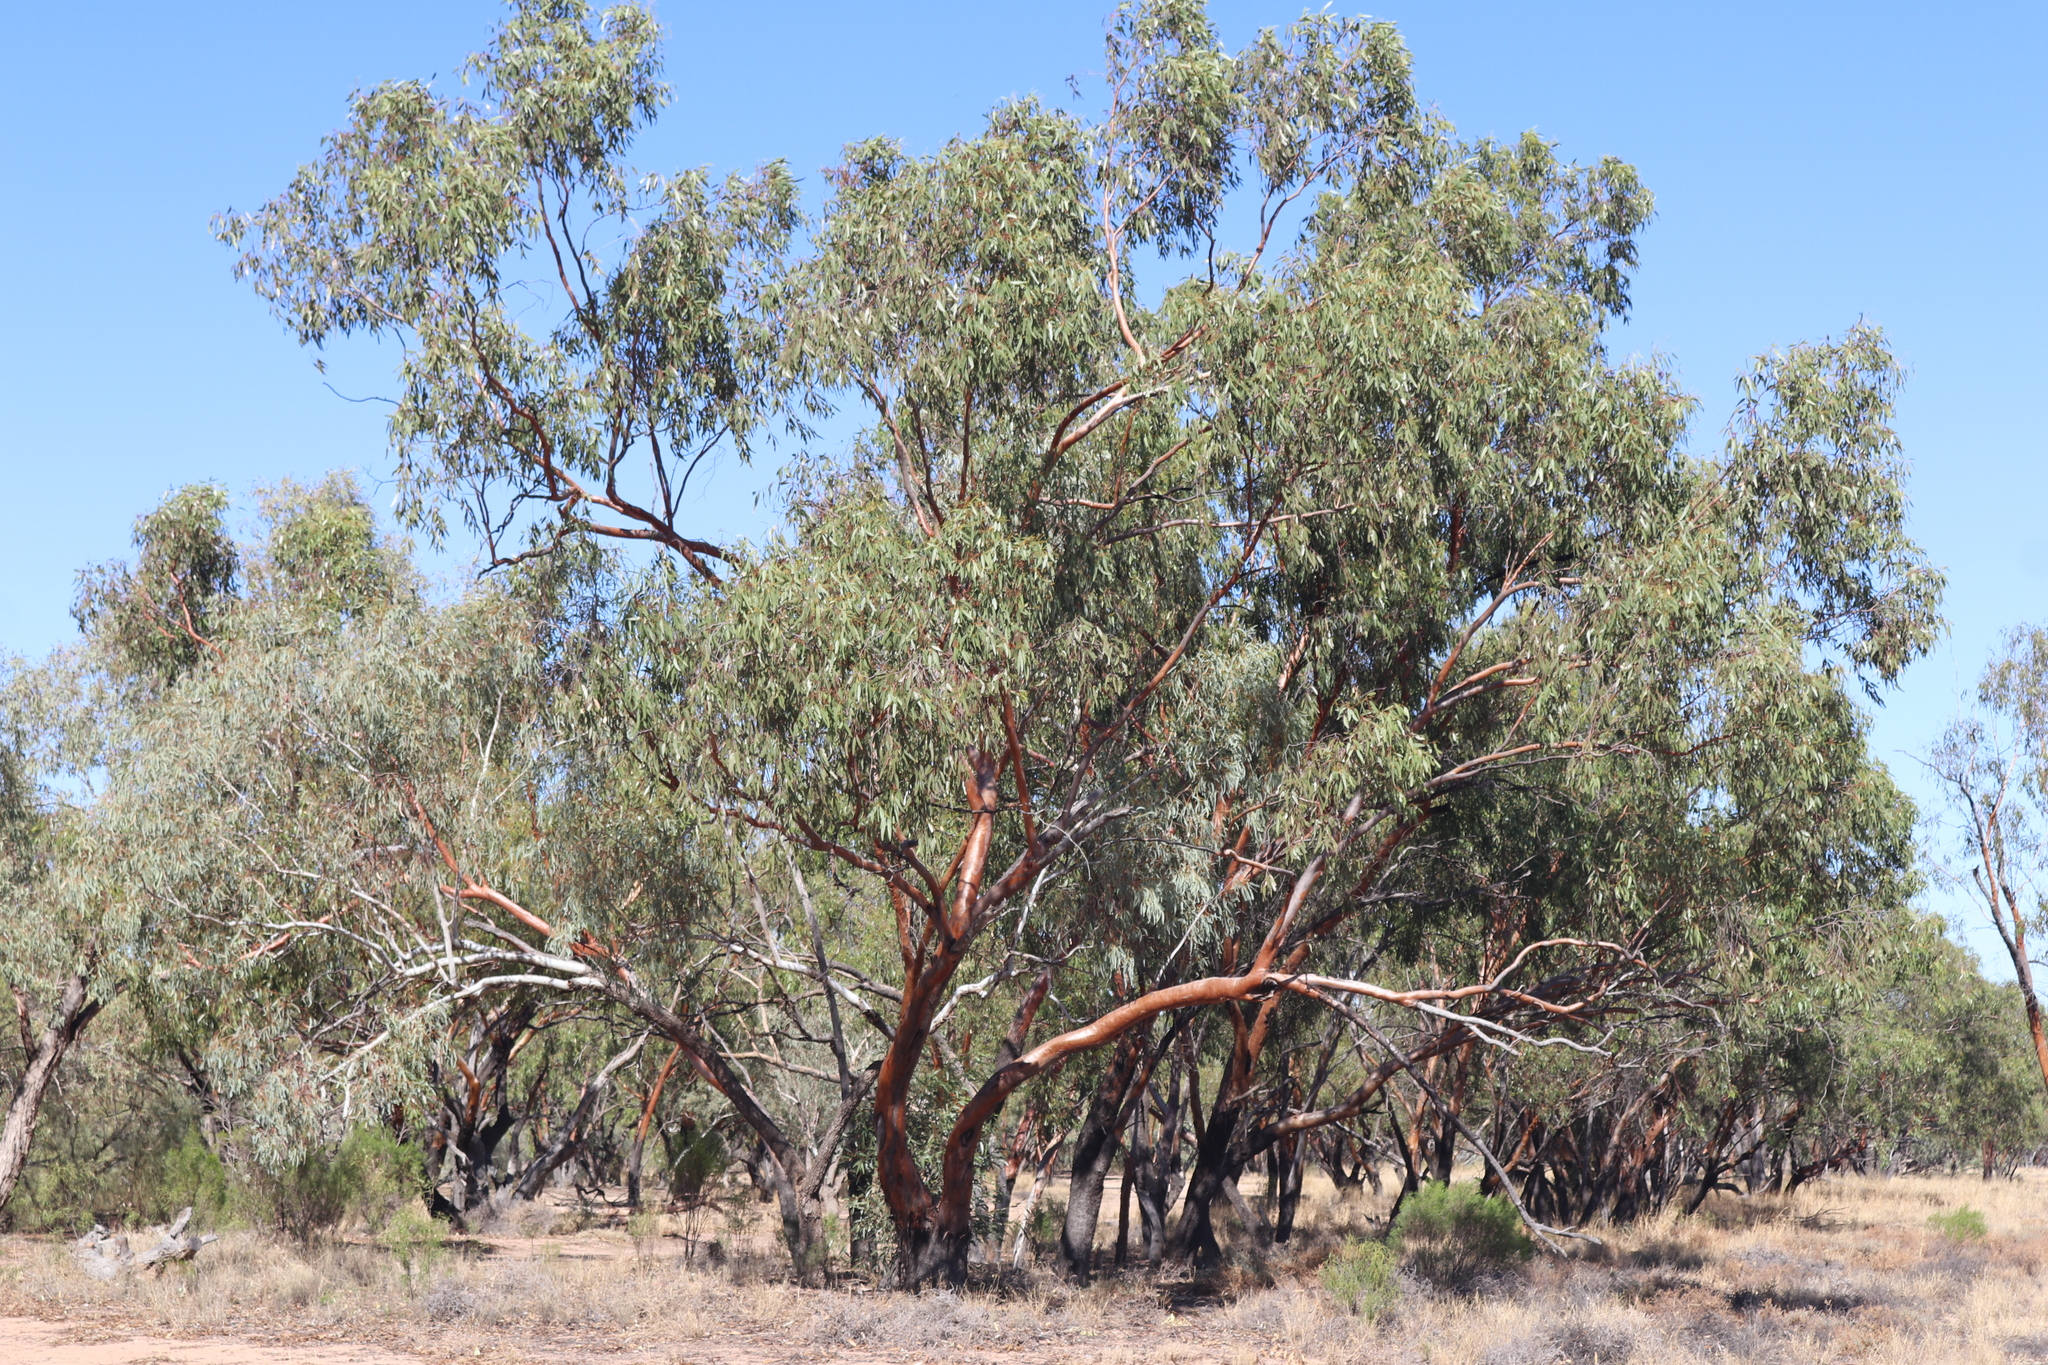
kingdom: Plantae
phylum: Tracheophyta
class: Magnoliopsida
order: Myrtales
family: Myrtaceae
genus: Eucalyptus
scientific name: Eucalyptus ochrophloia
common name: Yapunyah
